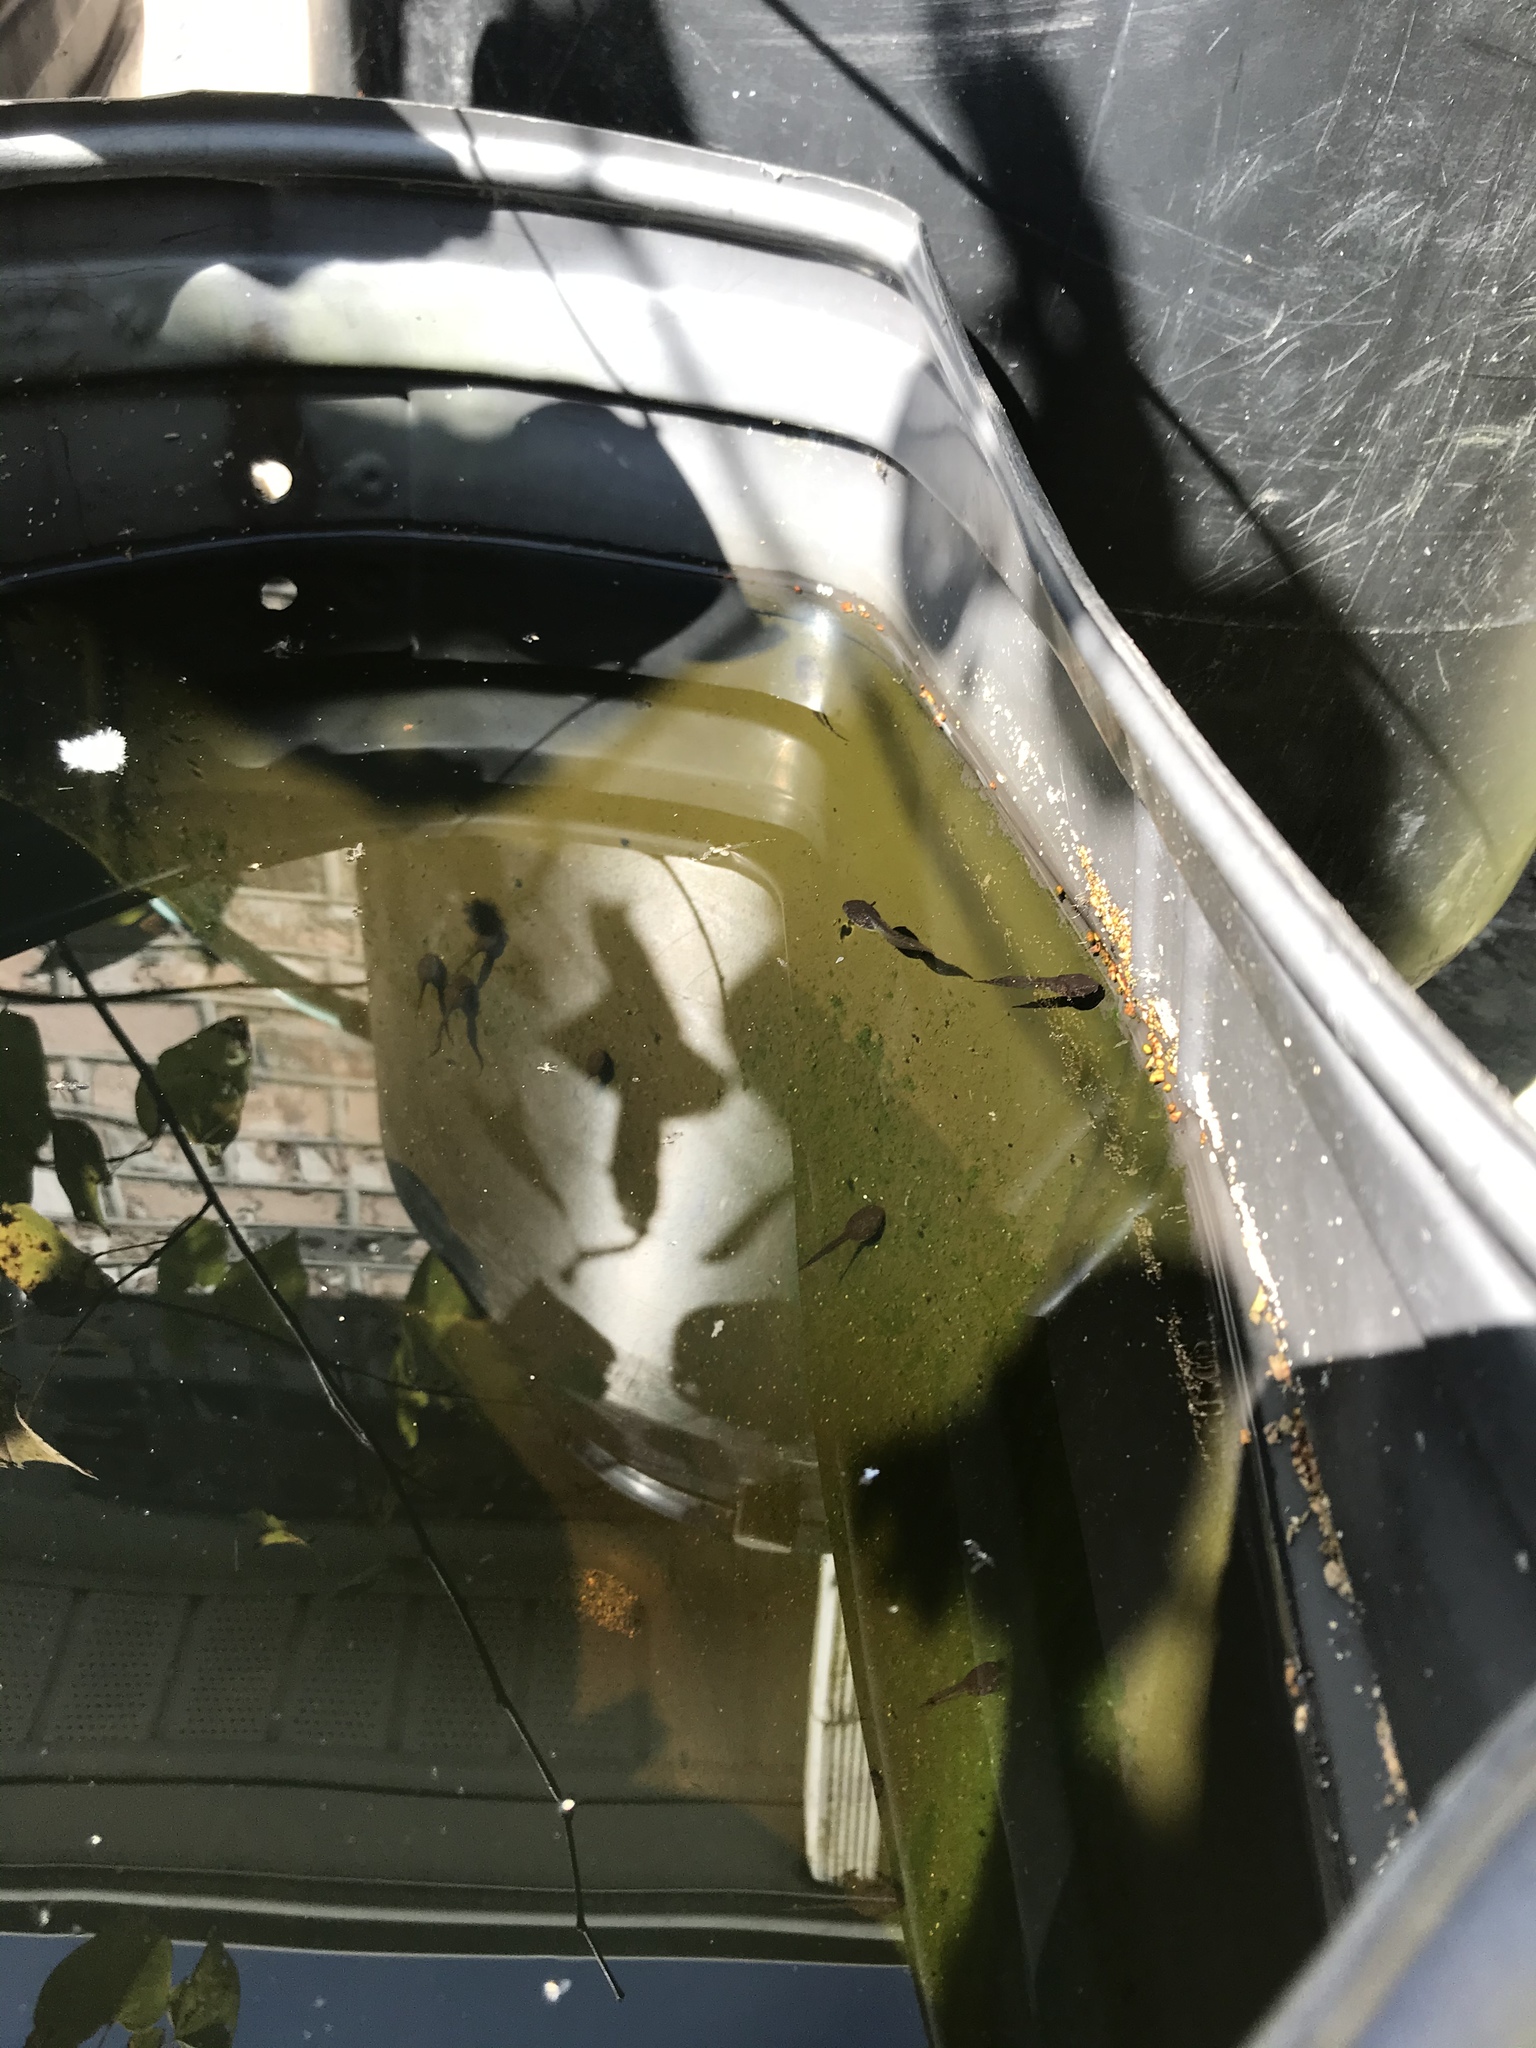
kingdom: Animalia
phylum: Chordata
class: Amphibia
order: Anura
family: Hylidae
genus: Dryophytes
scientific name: Dryophytes chrysoscelis
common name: Cope's gray treefrog
